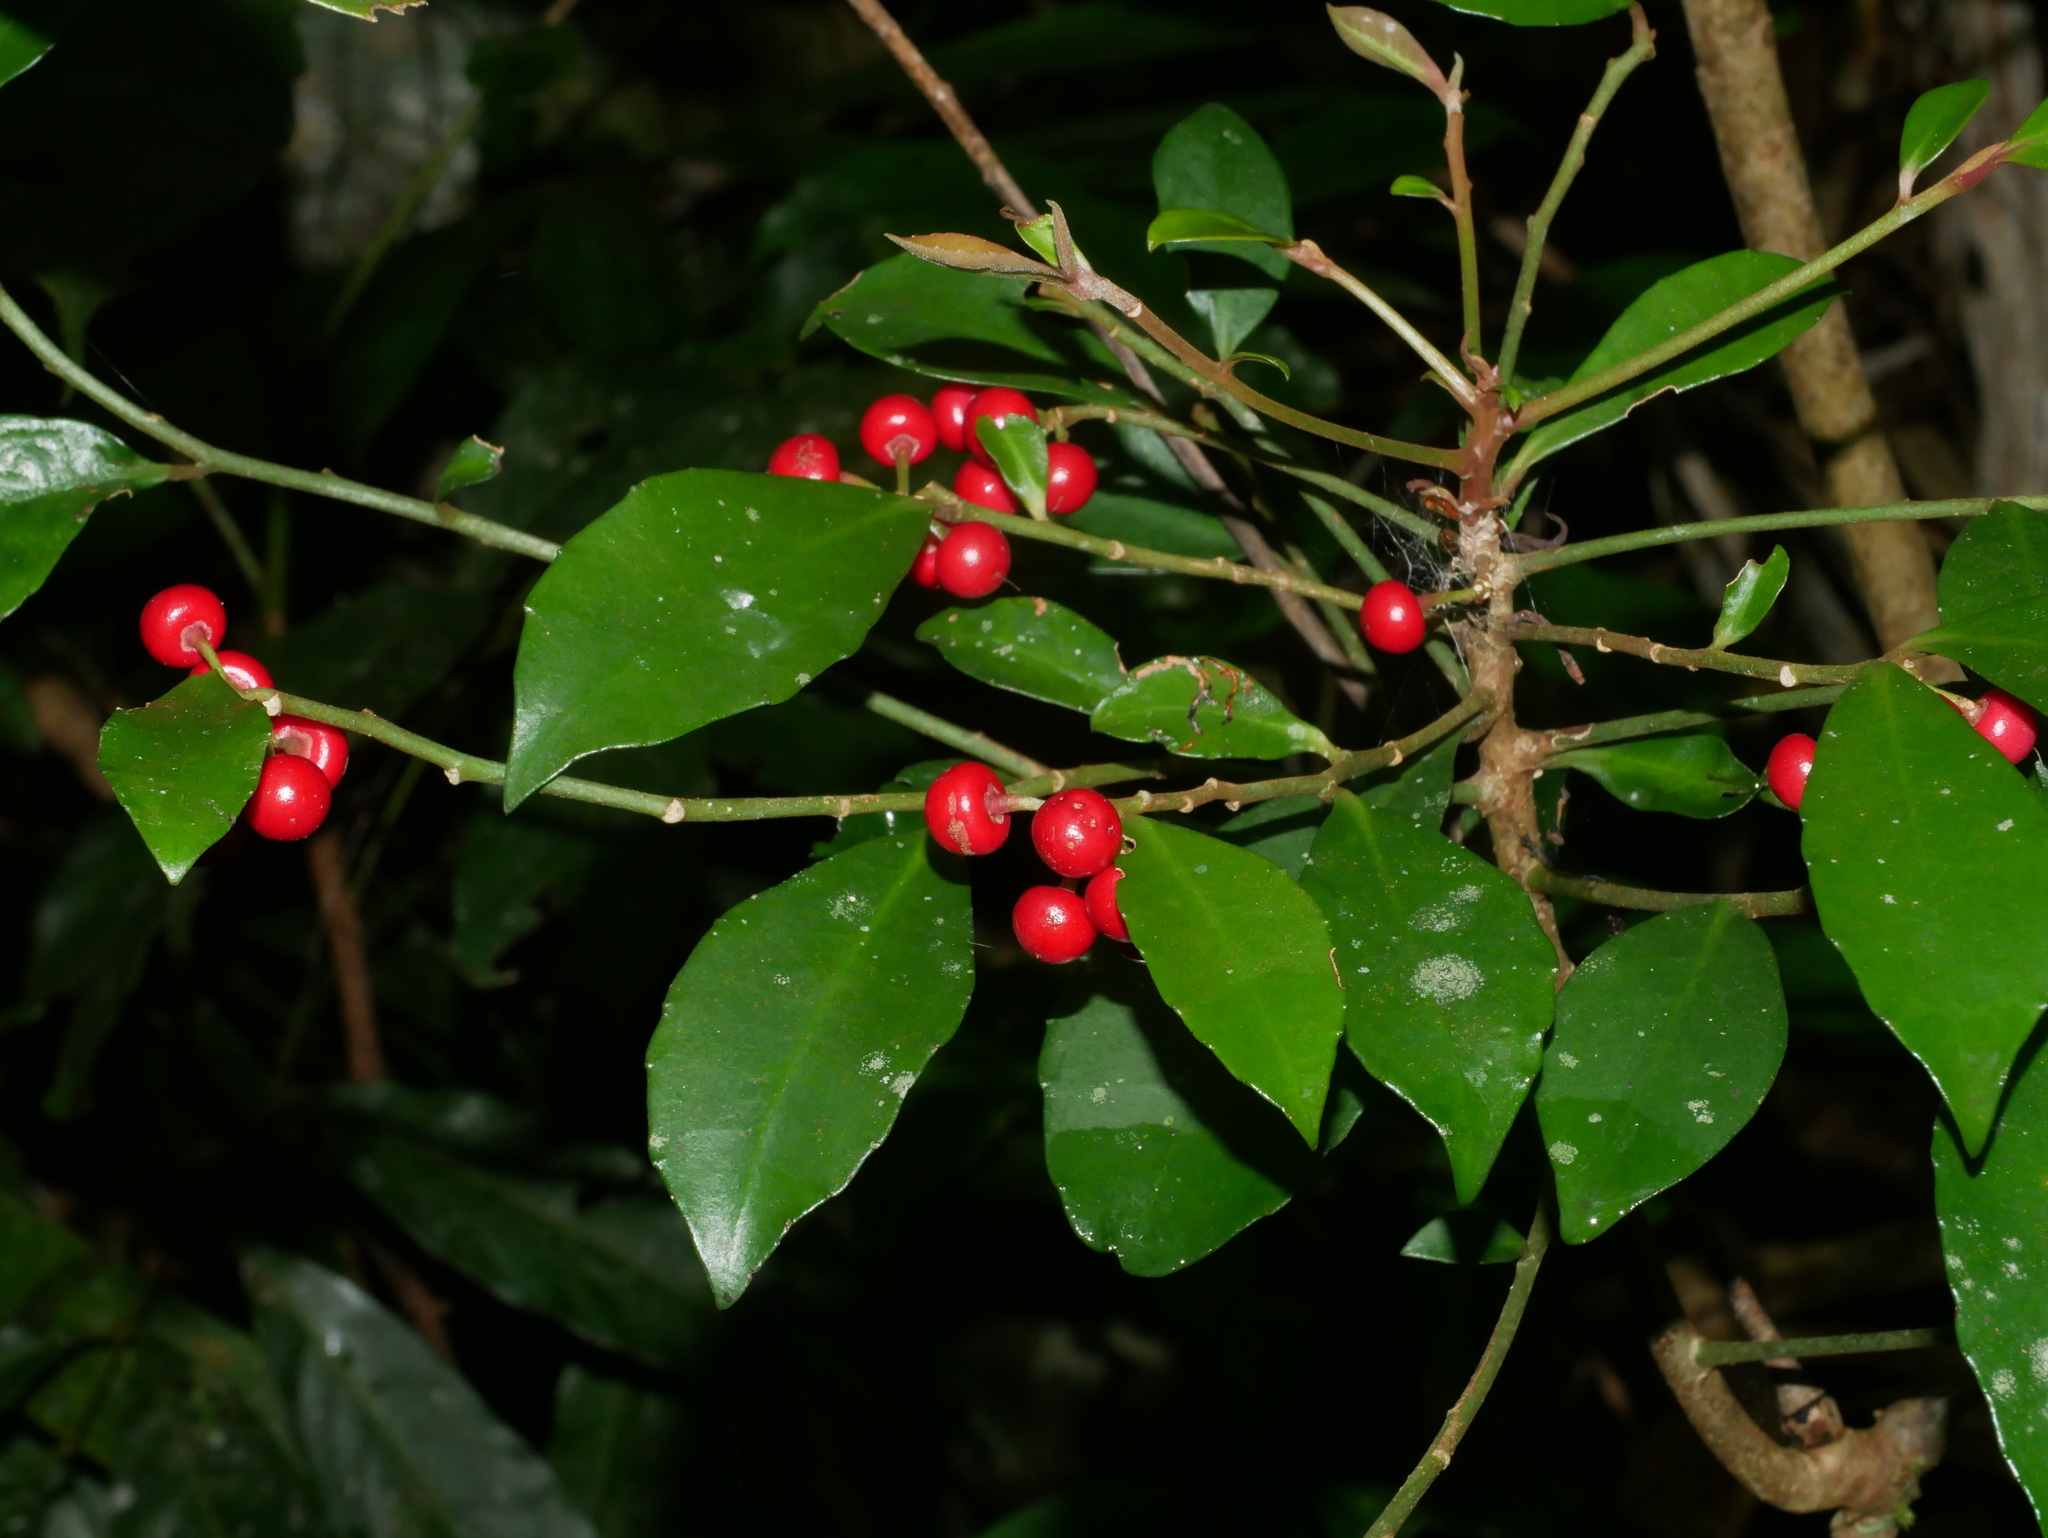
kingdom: Plantae
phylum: Tracheophyta
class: Magnoliopsida
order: Ericales
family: Primulaceae
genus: Ardisia
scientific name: Ardisia cornudentata
